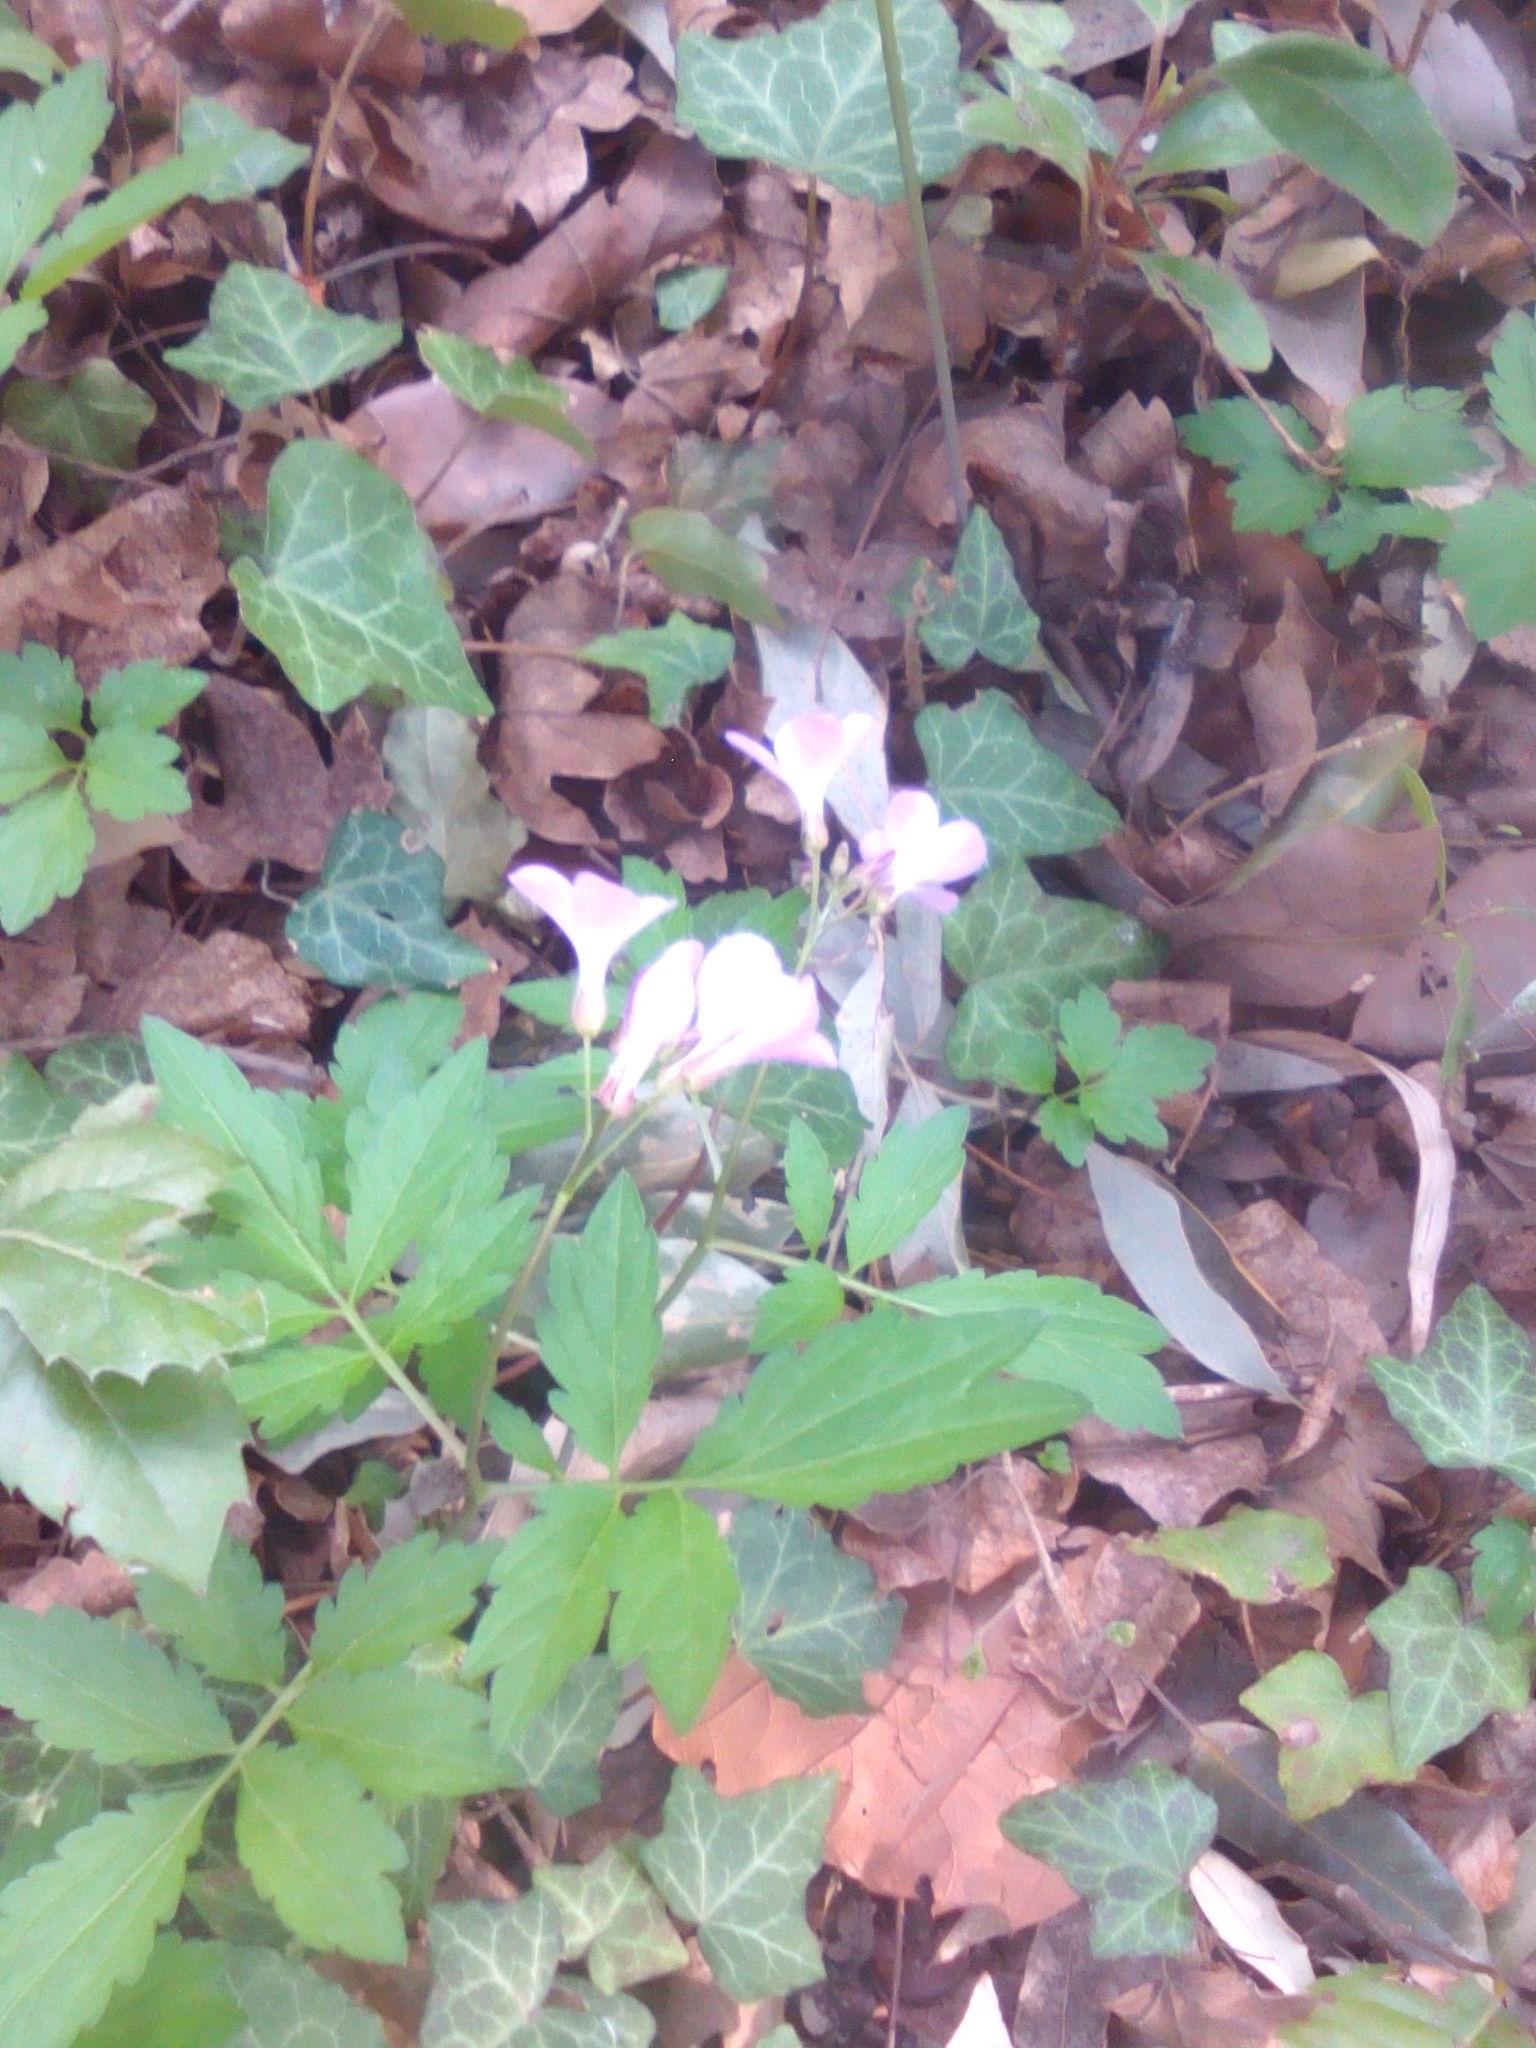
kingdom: Plantae
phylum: Tracheophyta
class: Magnoliopsida
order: Brassicales
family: Brassicaceae
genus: Cardamine
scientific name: Cardamine quinquefolia
